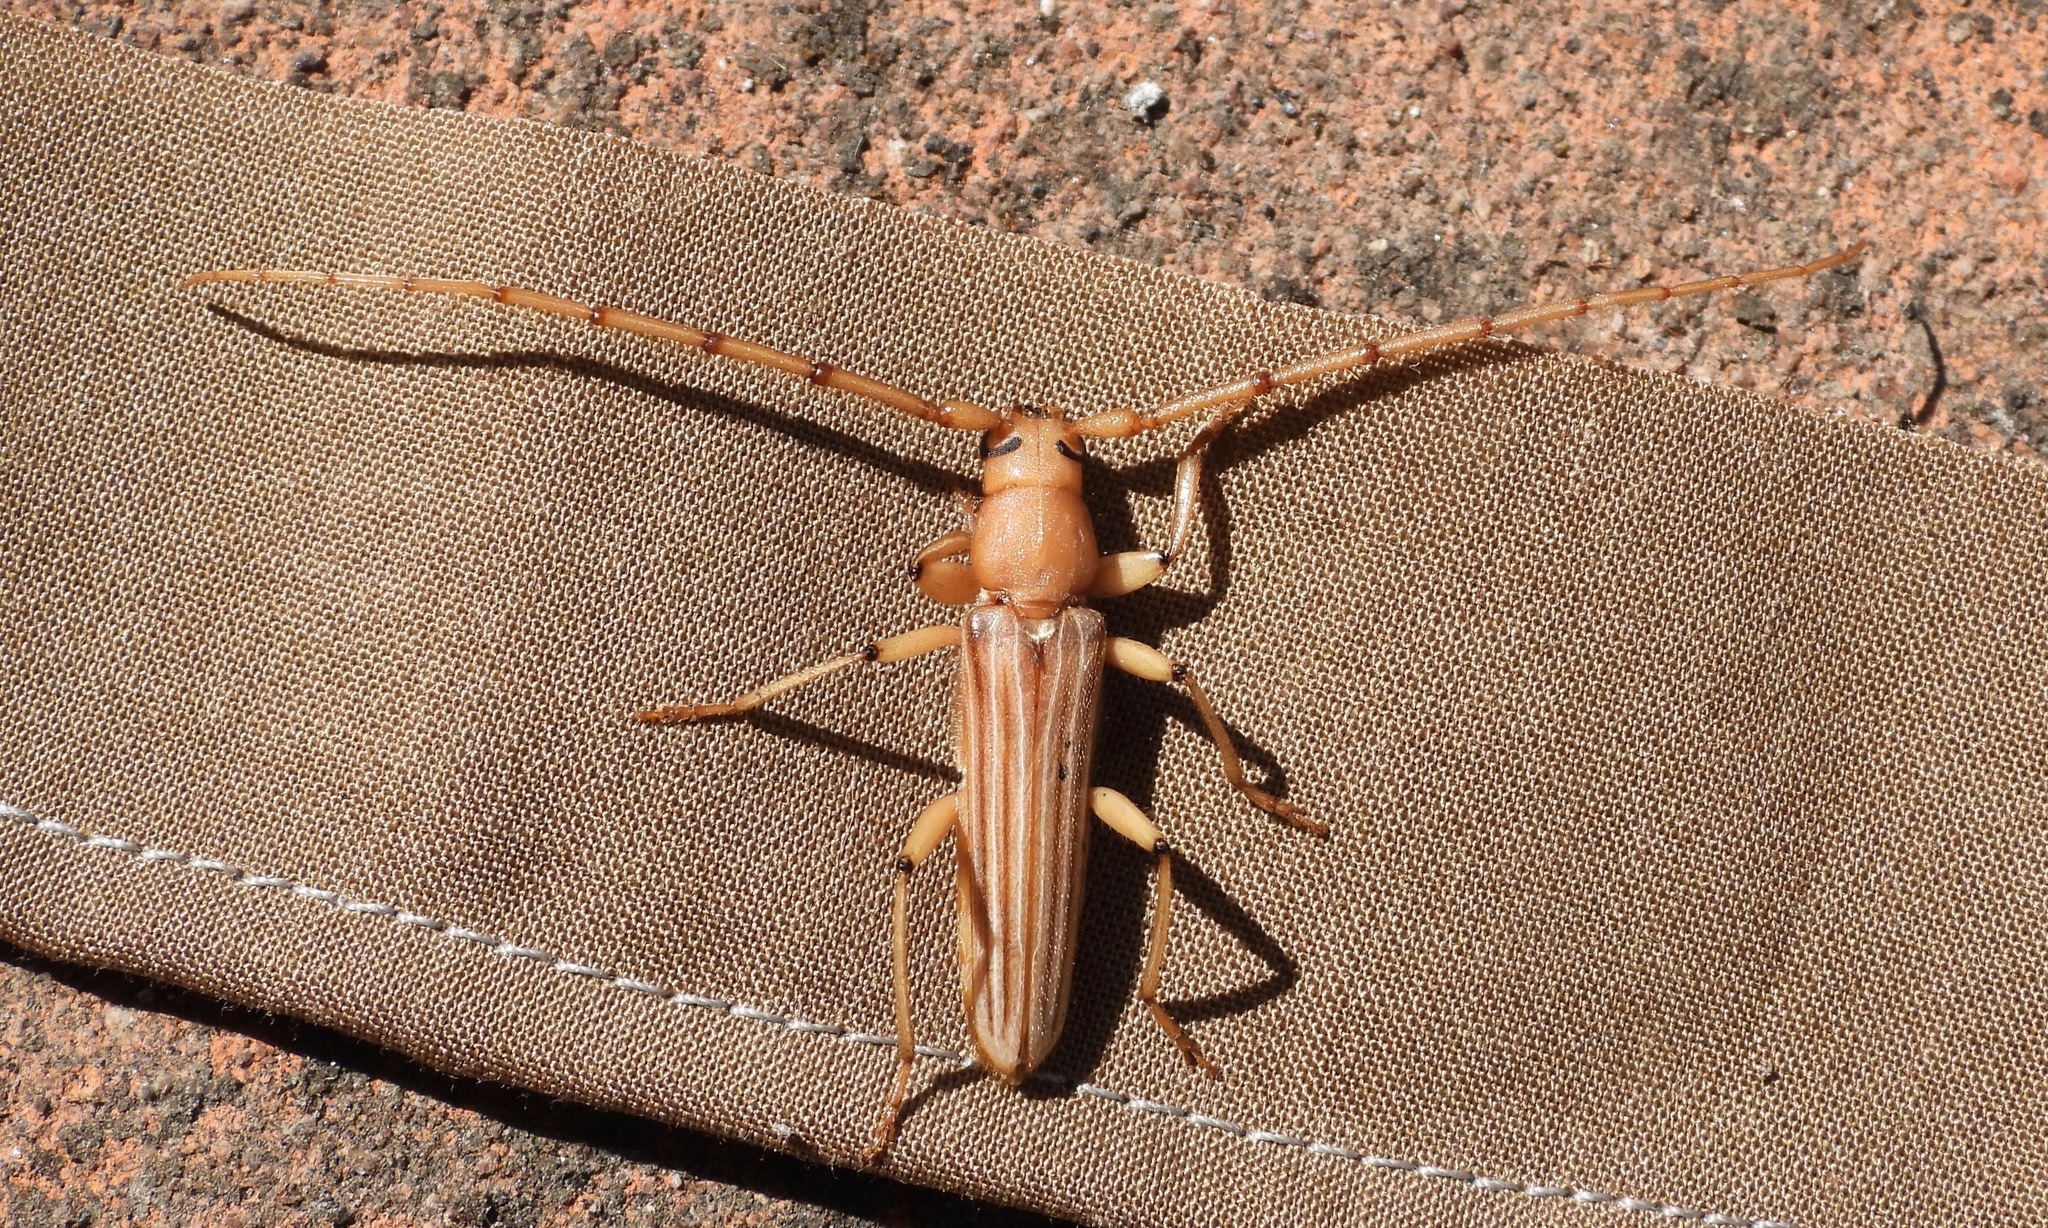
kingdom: Animalia
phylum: Arthropoda
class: Insecta
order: Coleoptera
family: Cerambycidae
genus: Malacopterus
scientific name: Malacopterus tenellus
